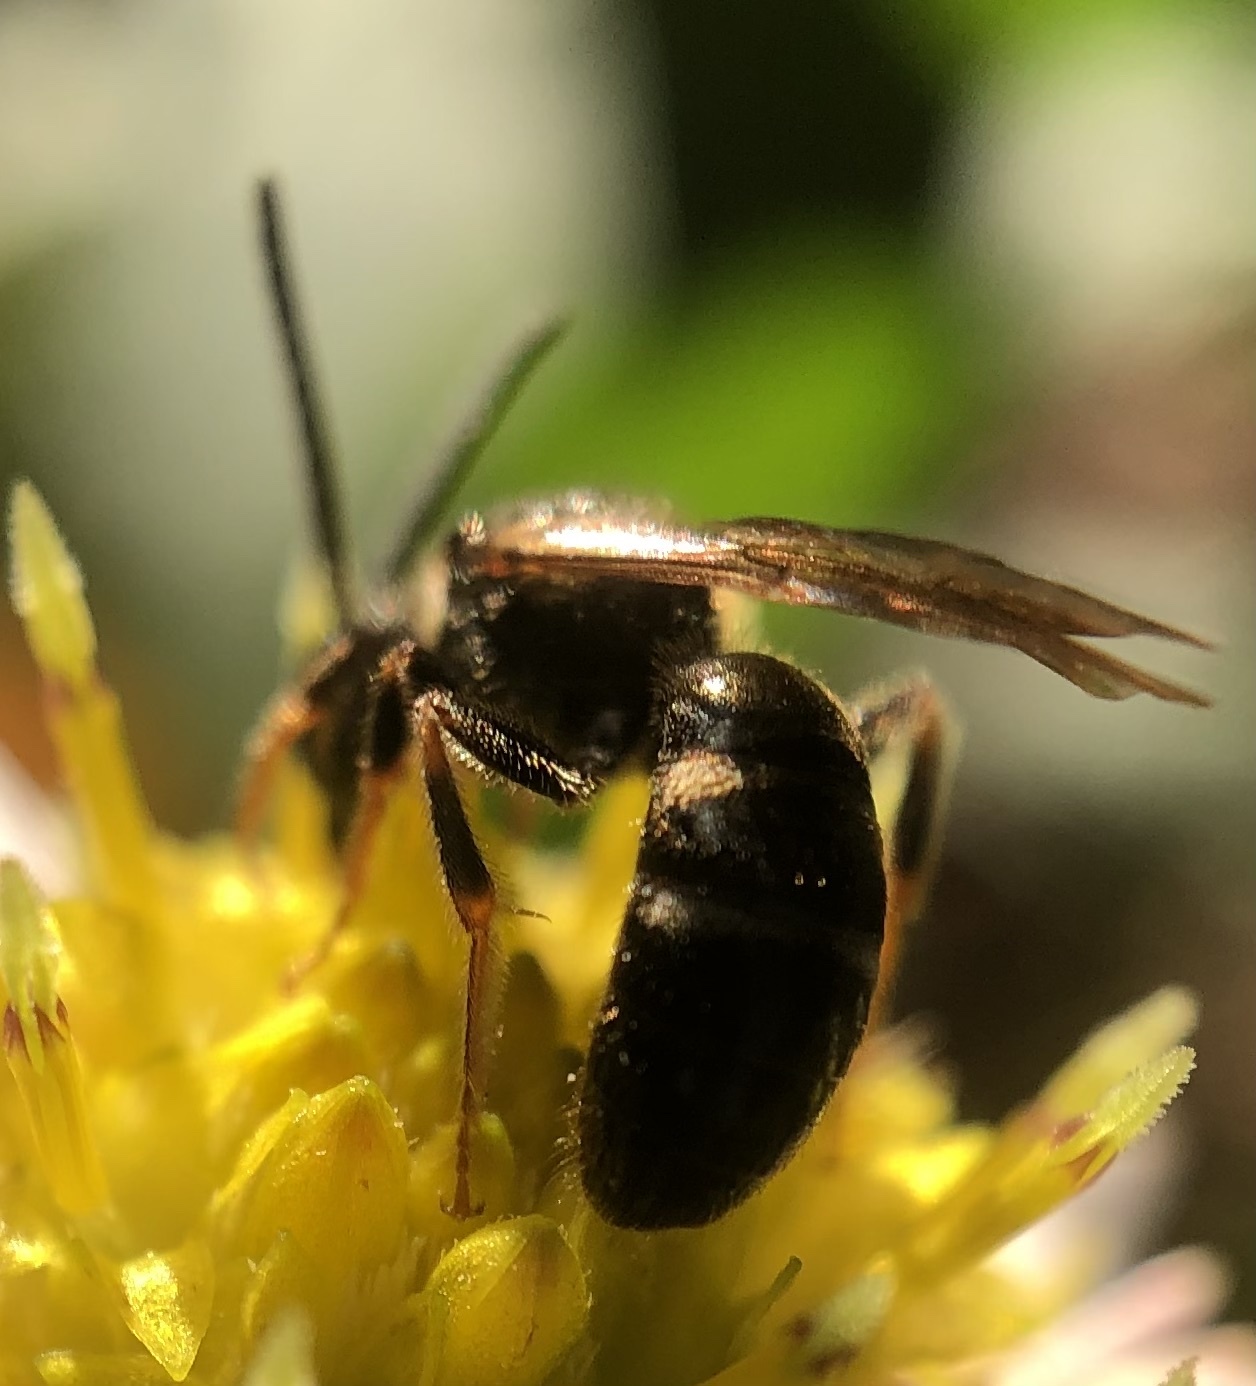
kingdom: Animalia
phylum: Arthropoda
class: Insecta
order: Hymenoptera
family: Halictidae
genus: Lasioglossum
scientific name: Lasioglossum fuscipenne
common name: Brown-winged sweat bee
